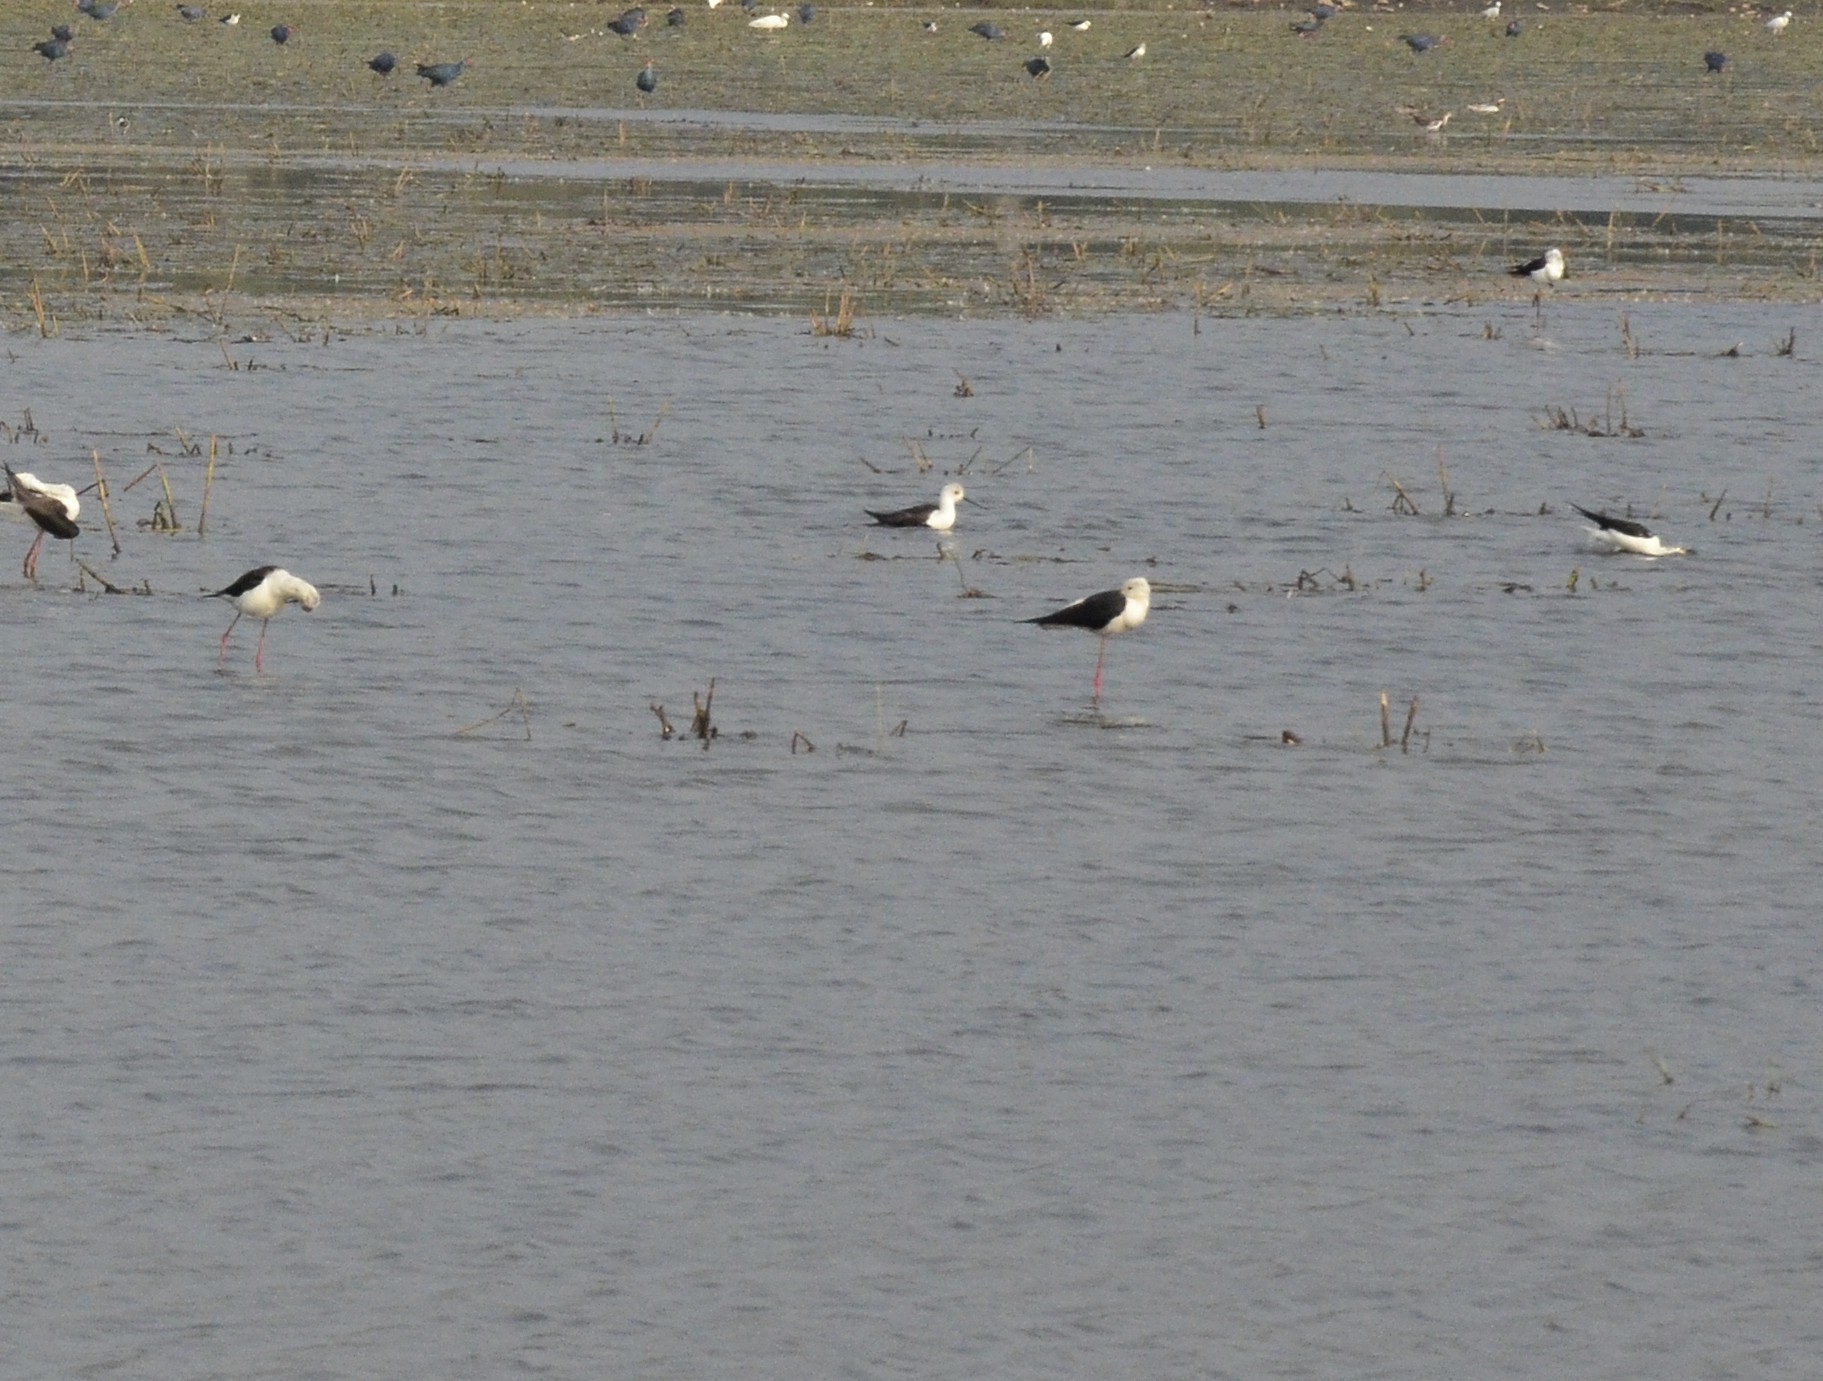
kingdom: Animalia
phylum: Chordata
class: Aves
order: Charadriiformes
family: Recurvirostridae
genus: Himantopus
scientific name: Himantopus himantopus
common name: Black-winged stilt
